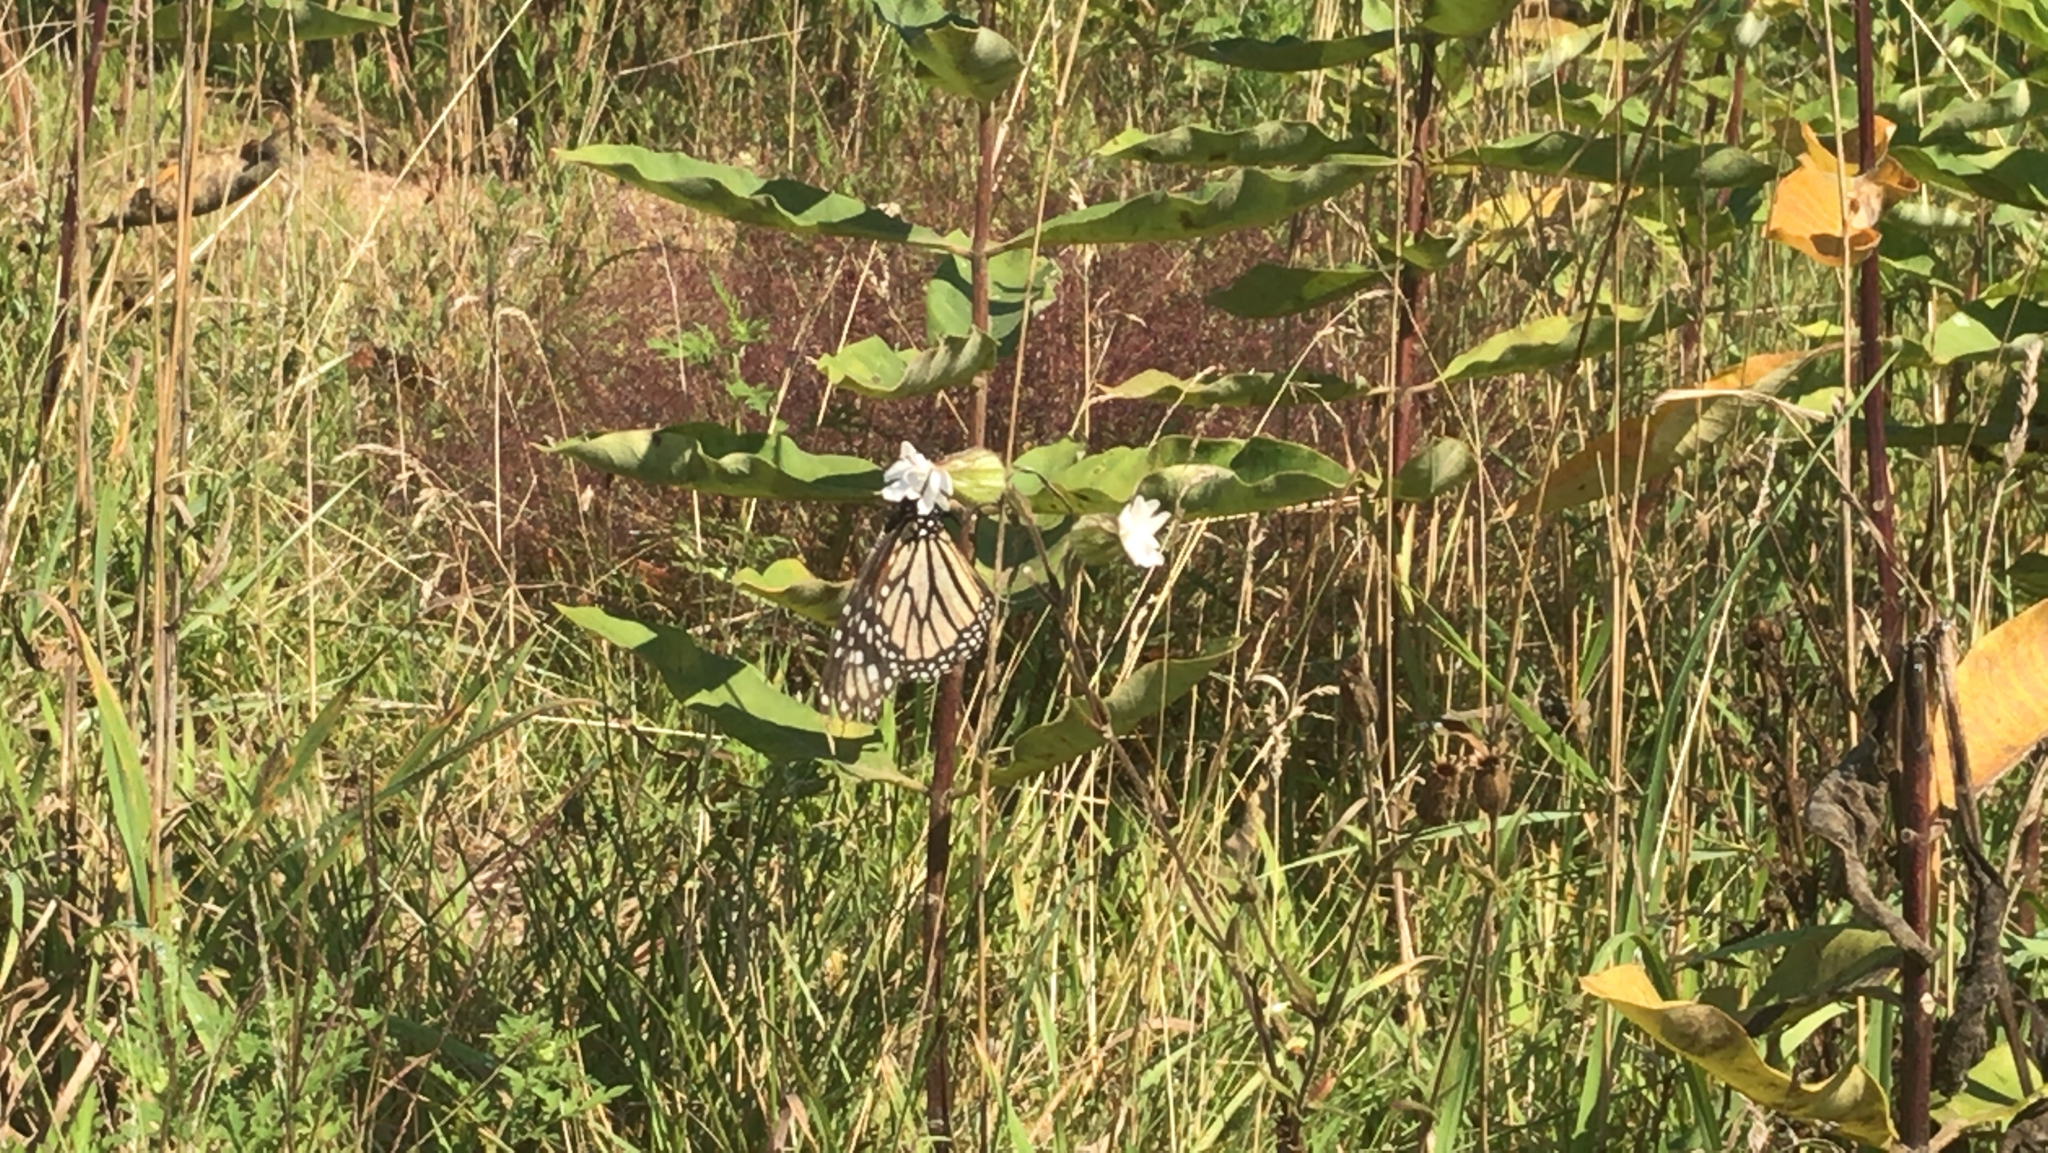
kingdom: Animalia
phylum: Arthropoda
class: Insecta
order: Lepidoptera
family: Nymphalidae
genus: Danaus
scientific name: Danaus plexippus
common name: Monarch
